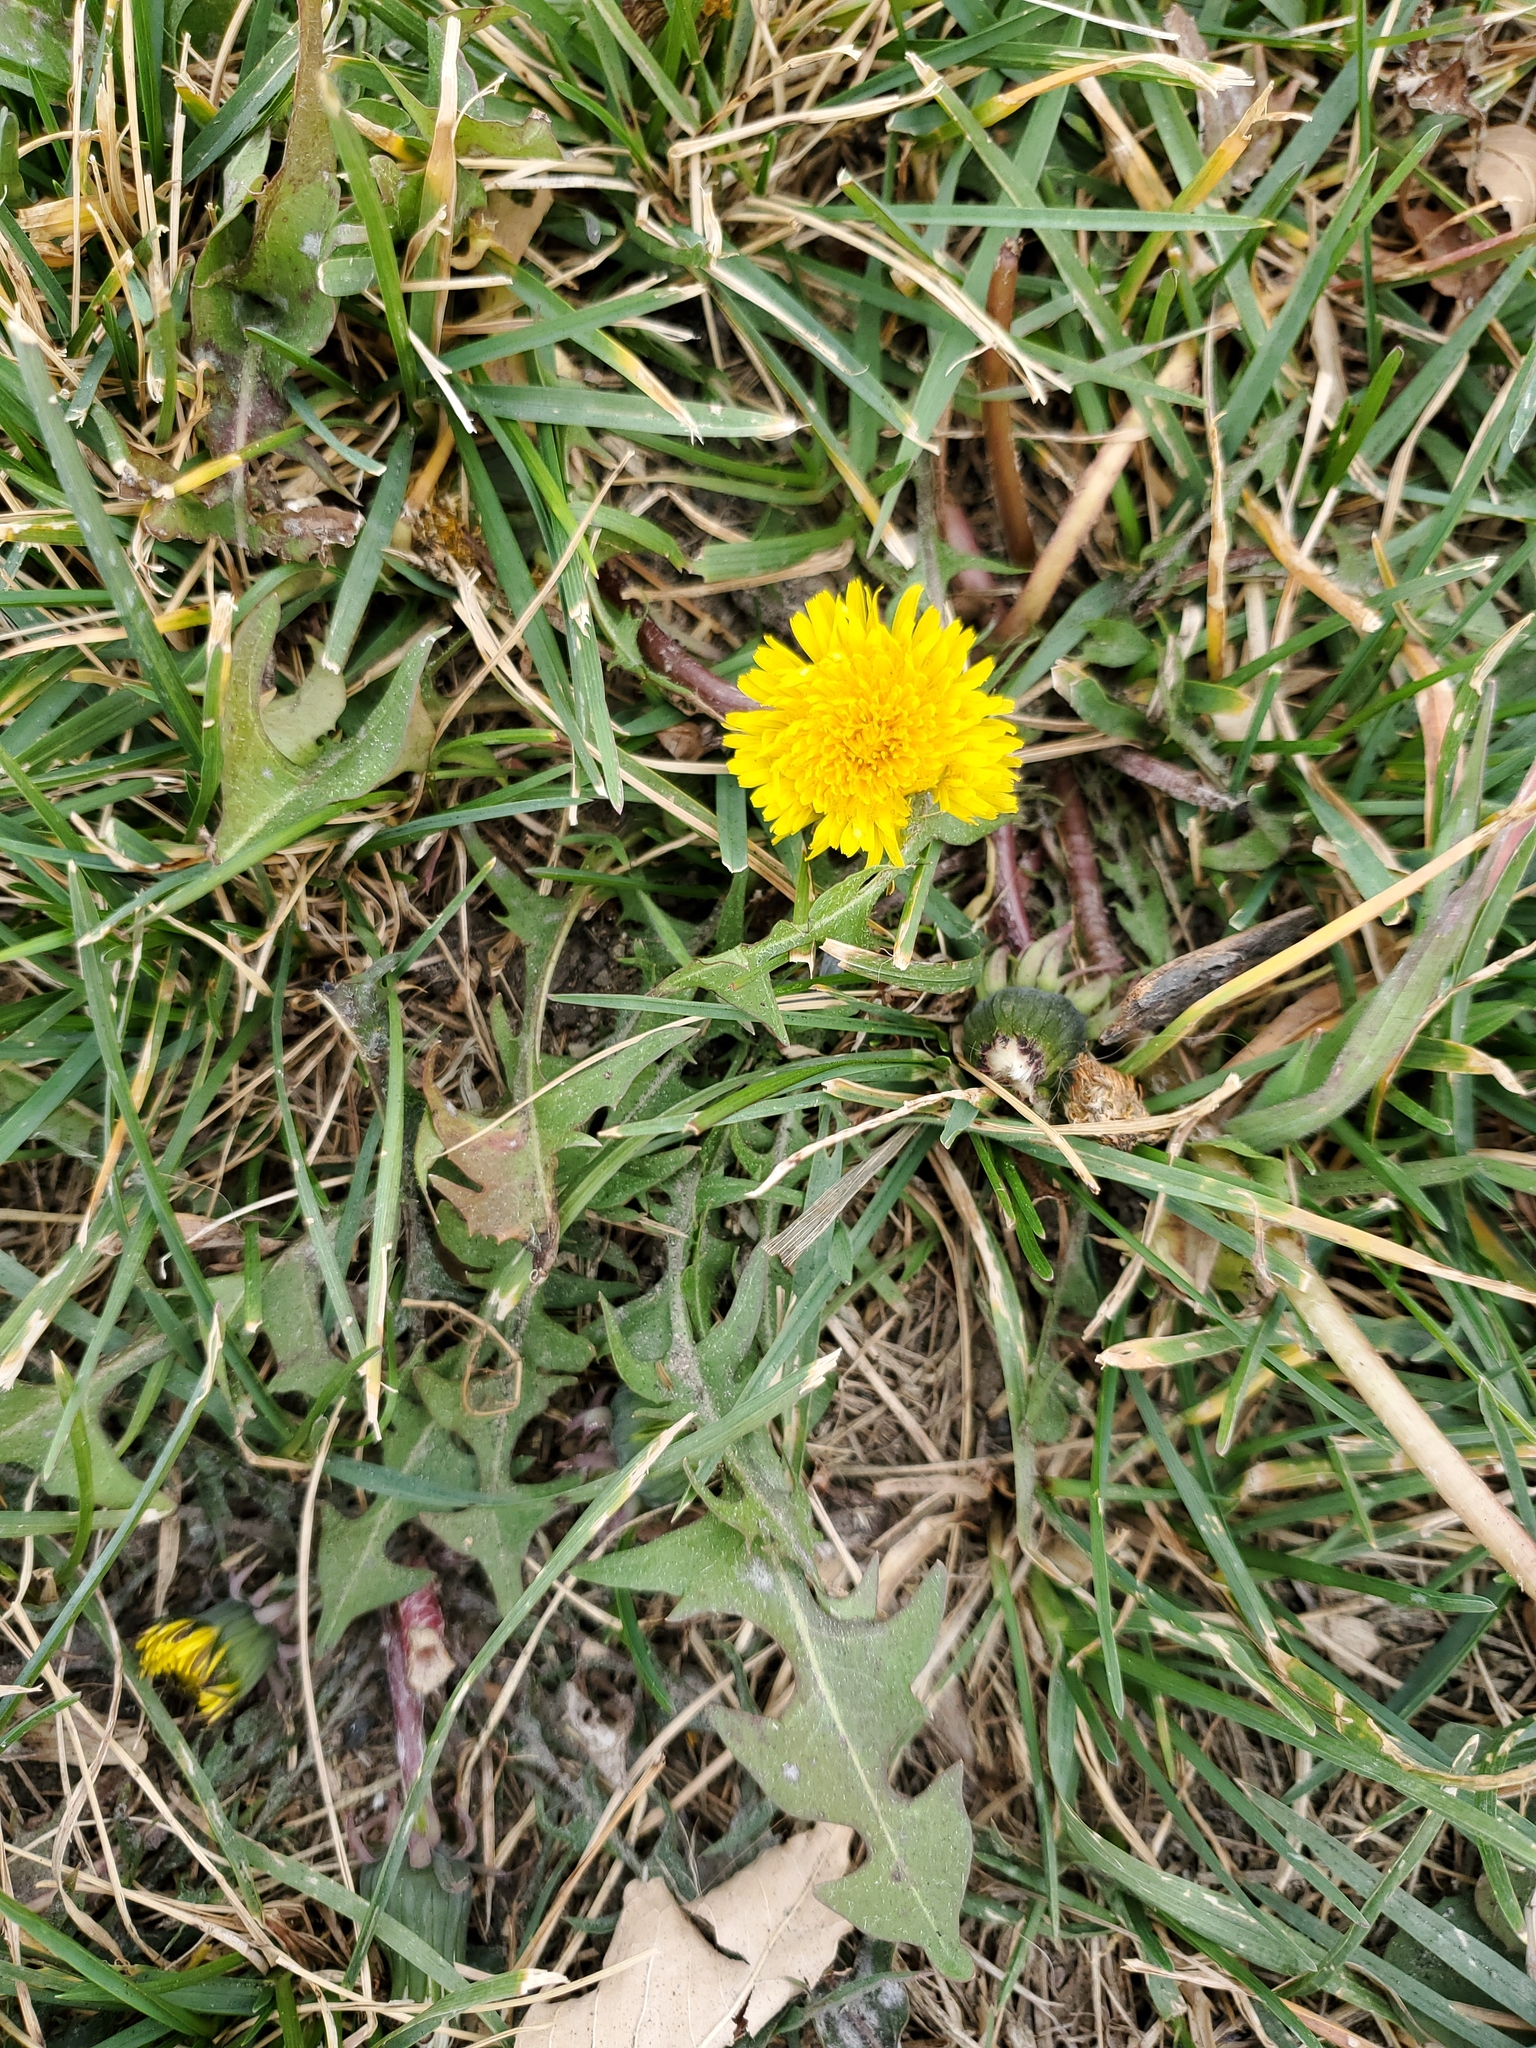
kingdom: Plantae
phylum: Tracheophyta
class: Magnoliopsida
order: Asterales
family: Asteraceae
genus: Taraxacum
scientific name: Taraxacum officinale
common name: Common dandelion
